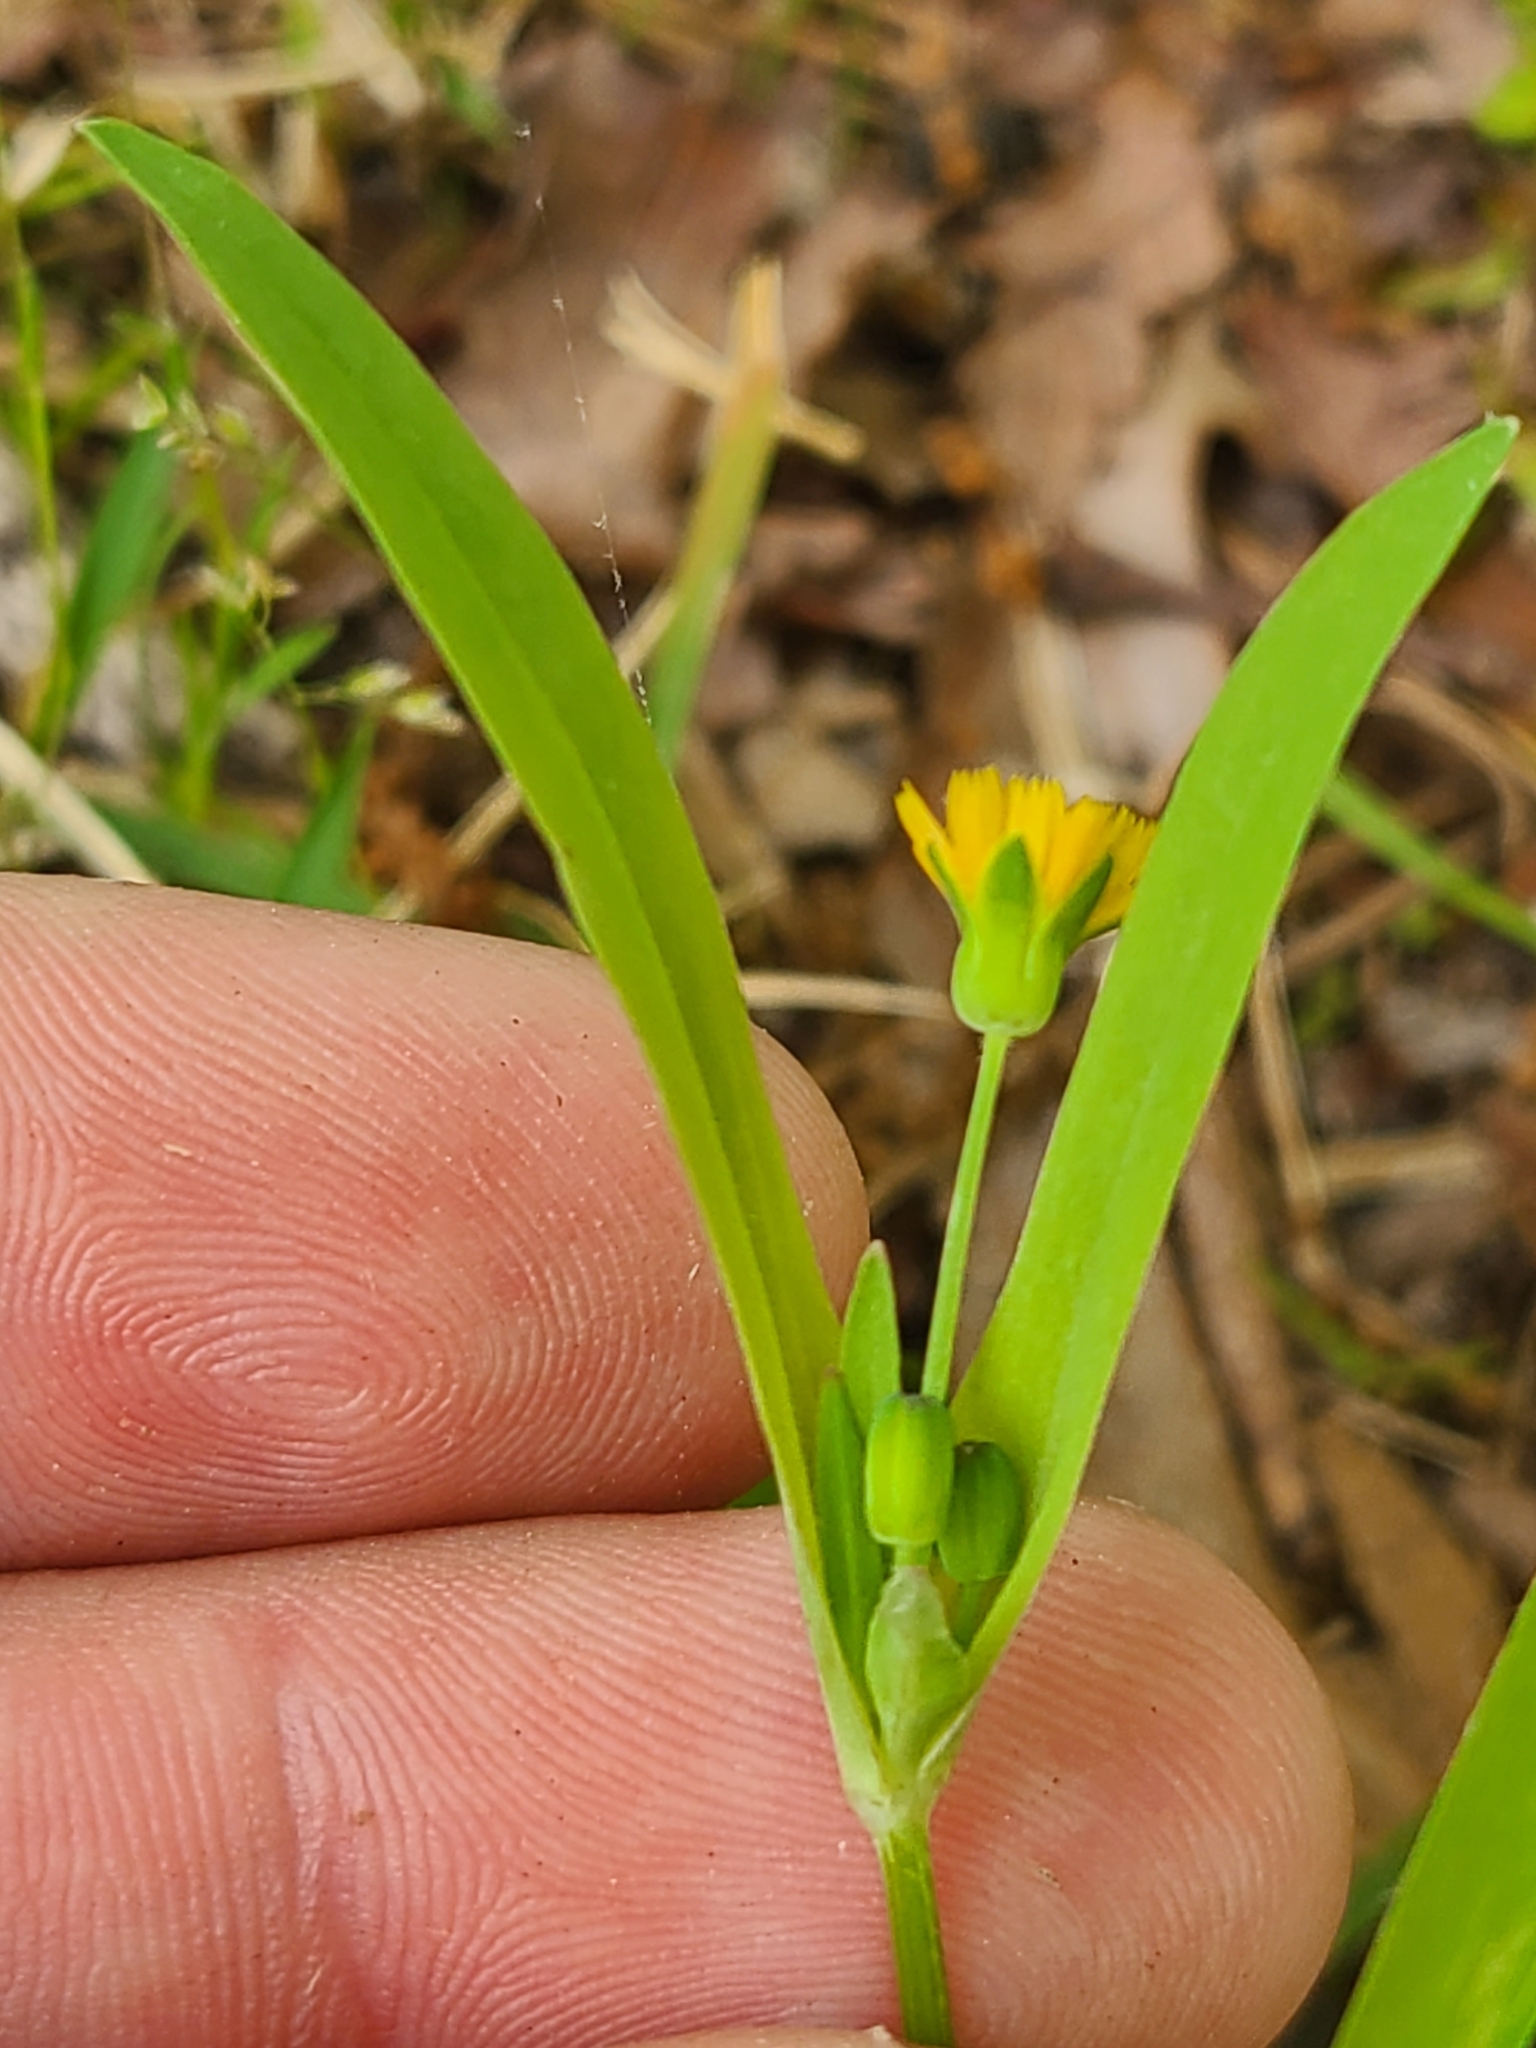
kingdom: Plantae
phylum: Tracheophyta
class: Magnoliopsida
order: Asterales
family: Asteraceae
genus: Krigia
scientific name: Krigia cespitosa
